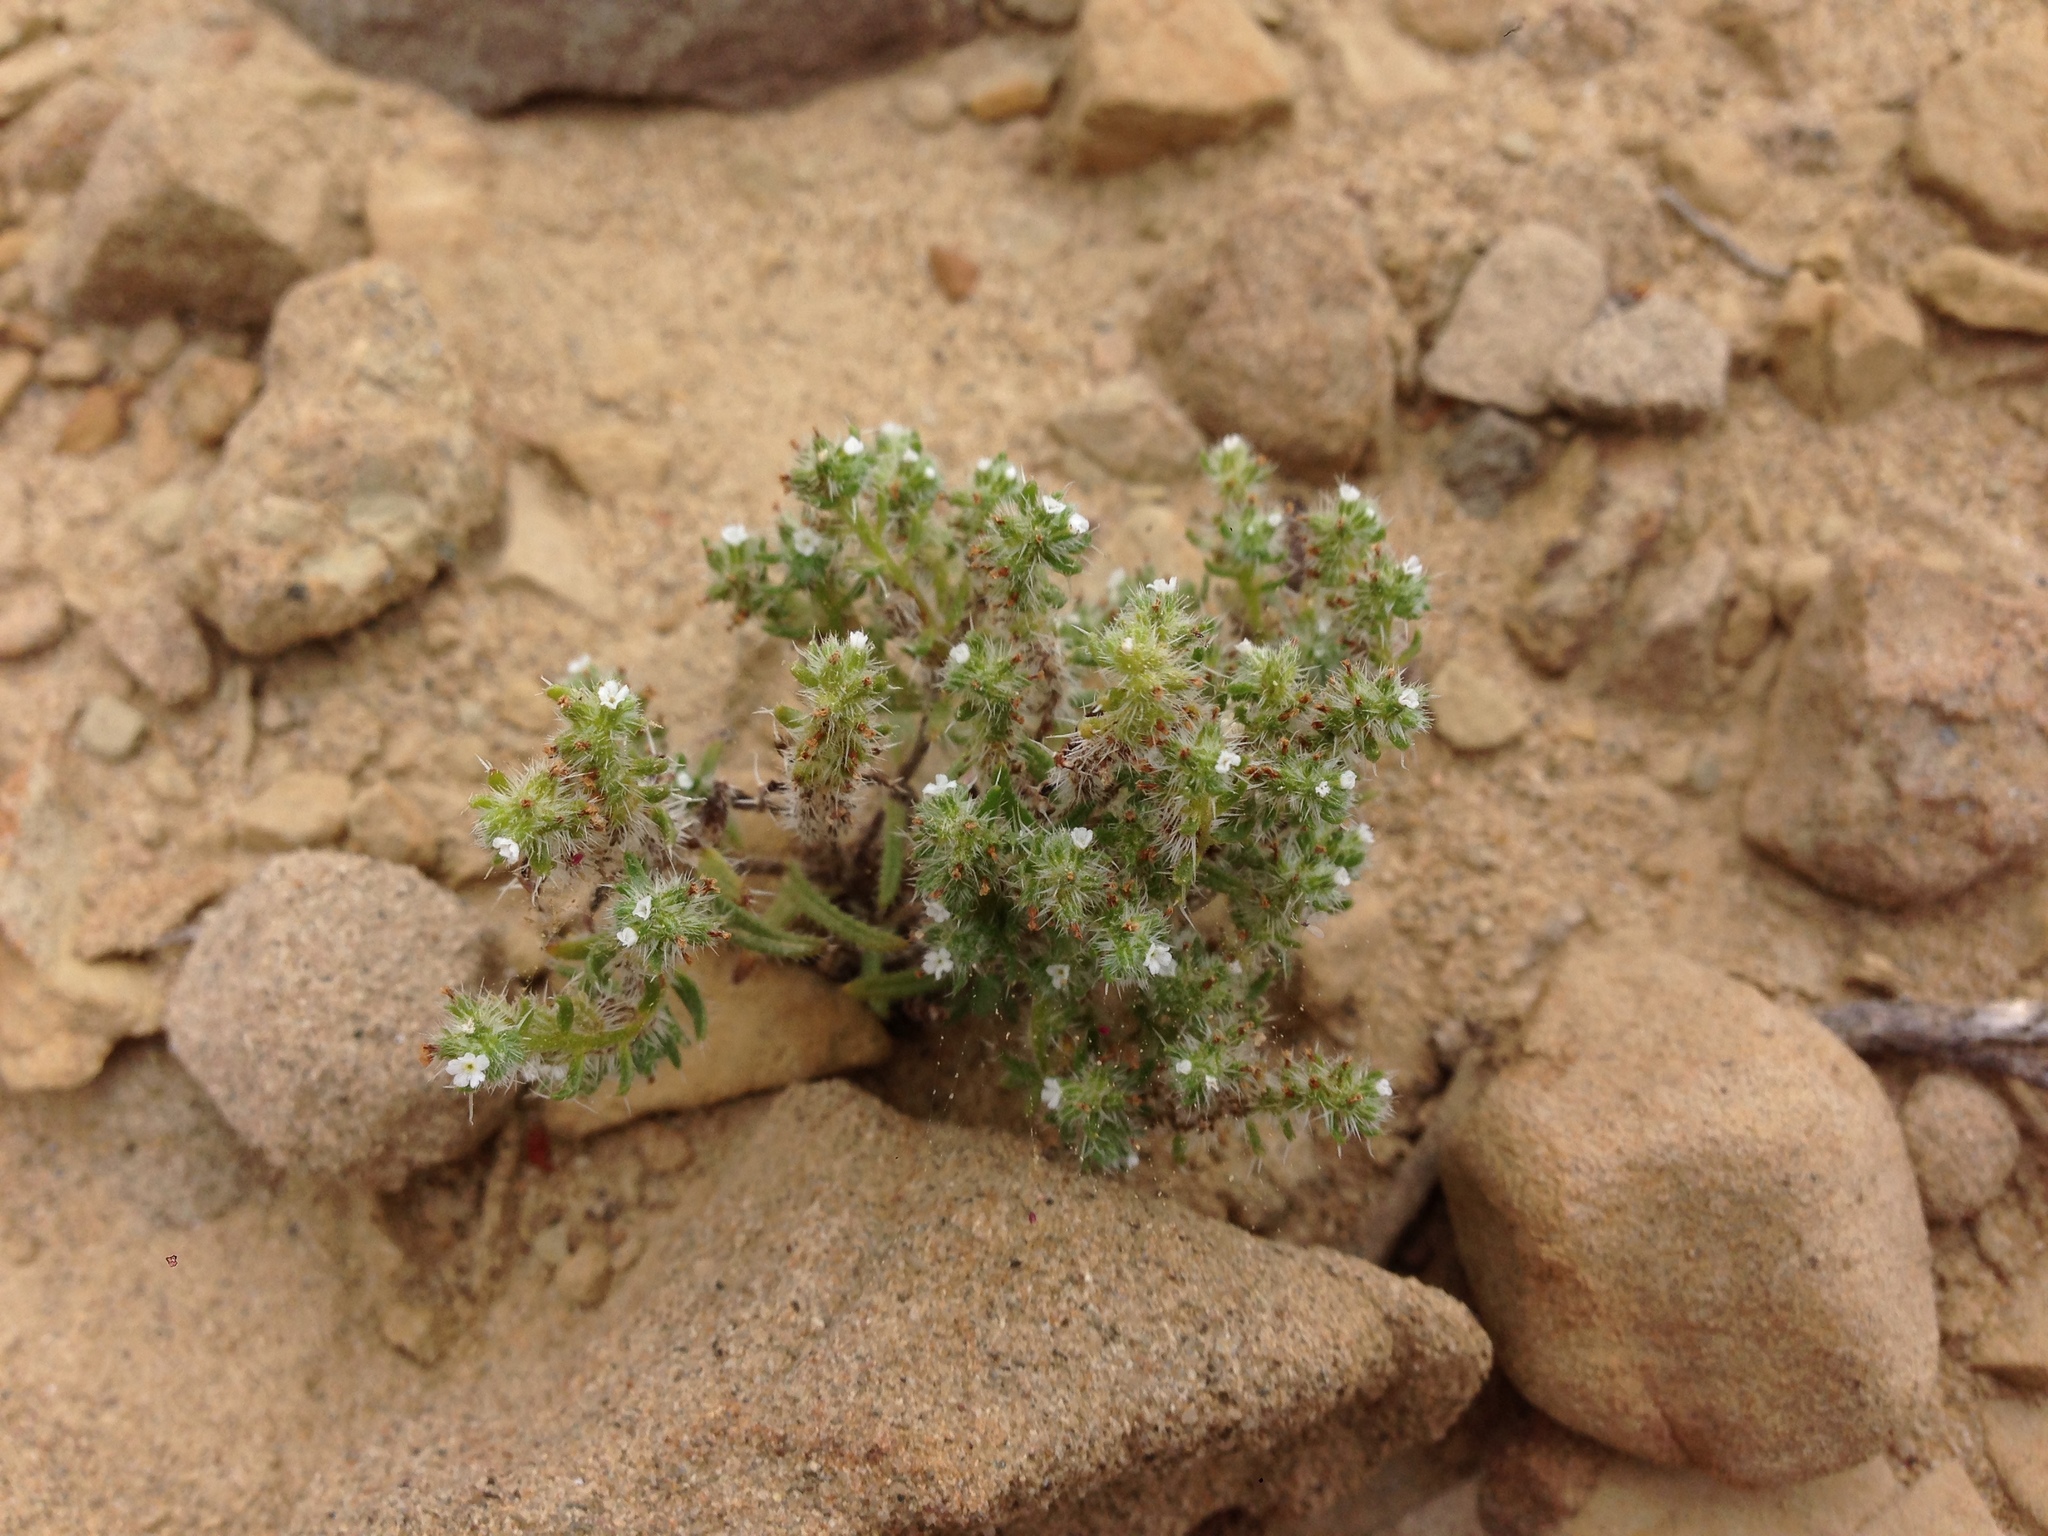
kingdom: Plantae
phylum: Tracheophyta
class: Magnoliopsida
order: Boraginales
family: Boraginaceae
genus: Cryptantha
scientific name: Cryptantha maritima
